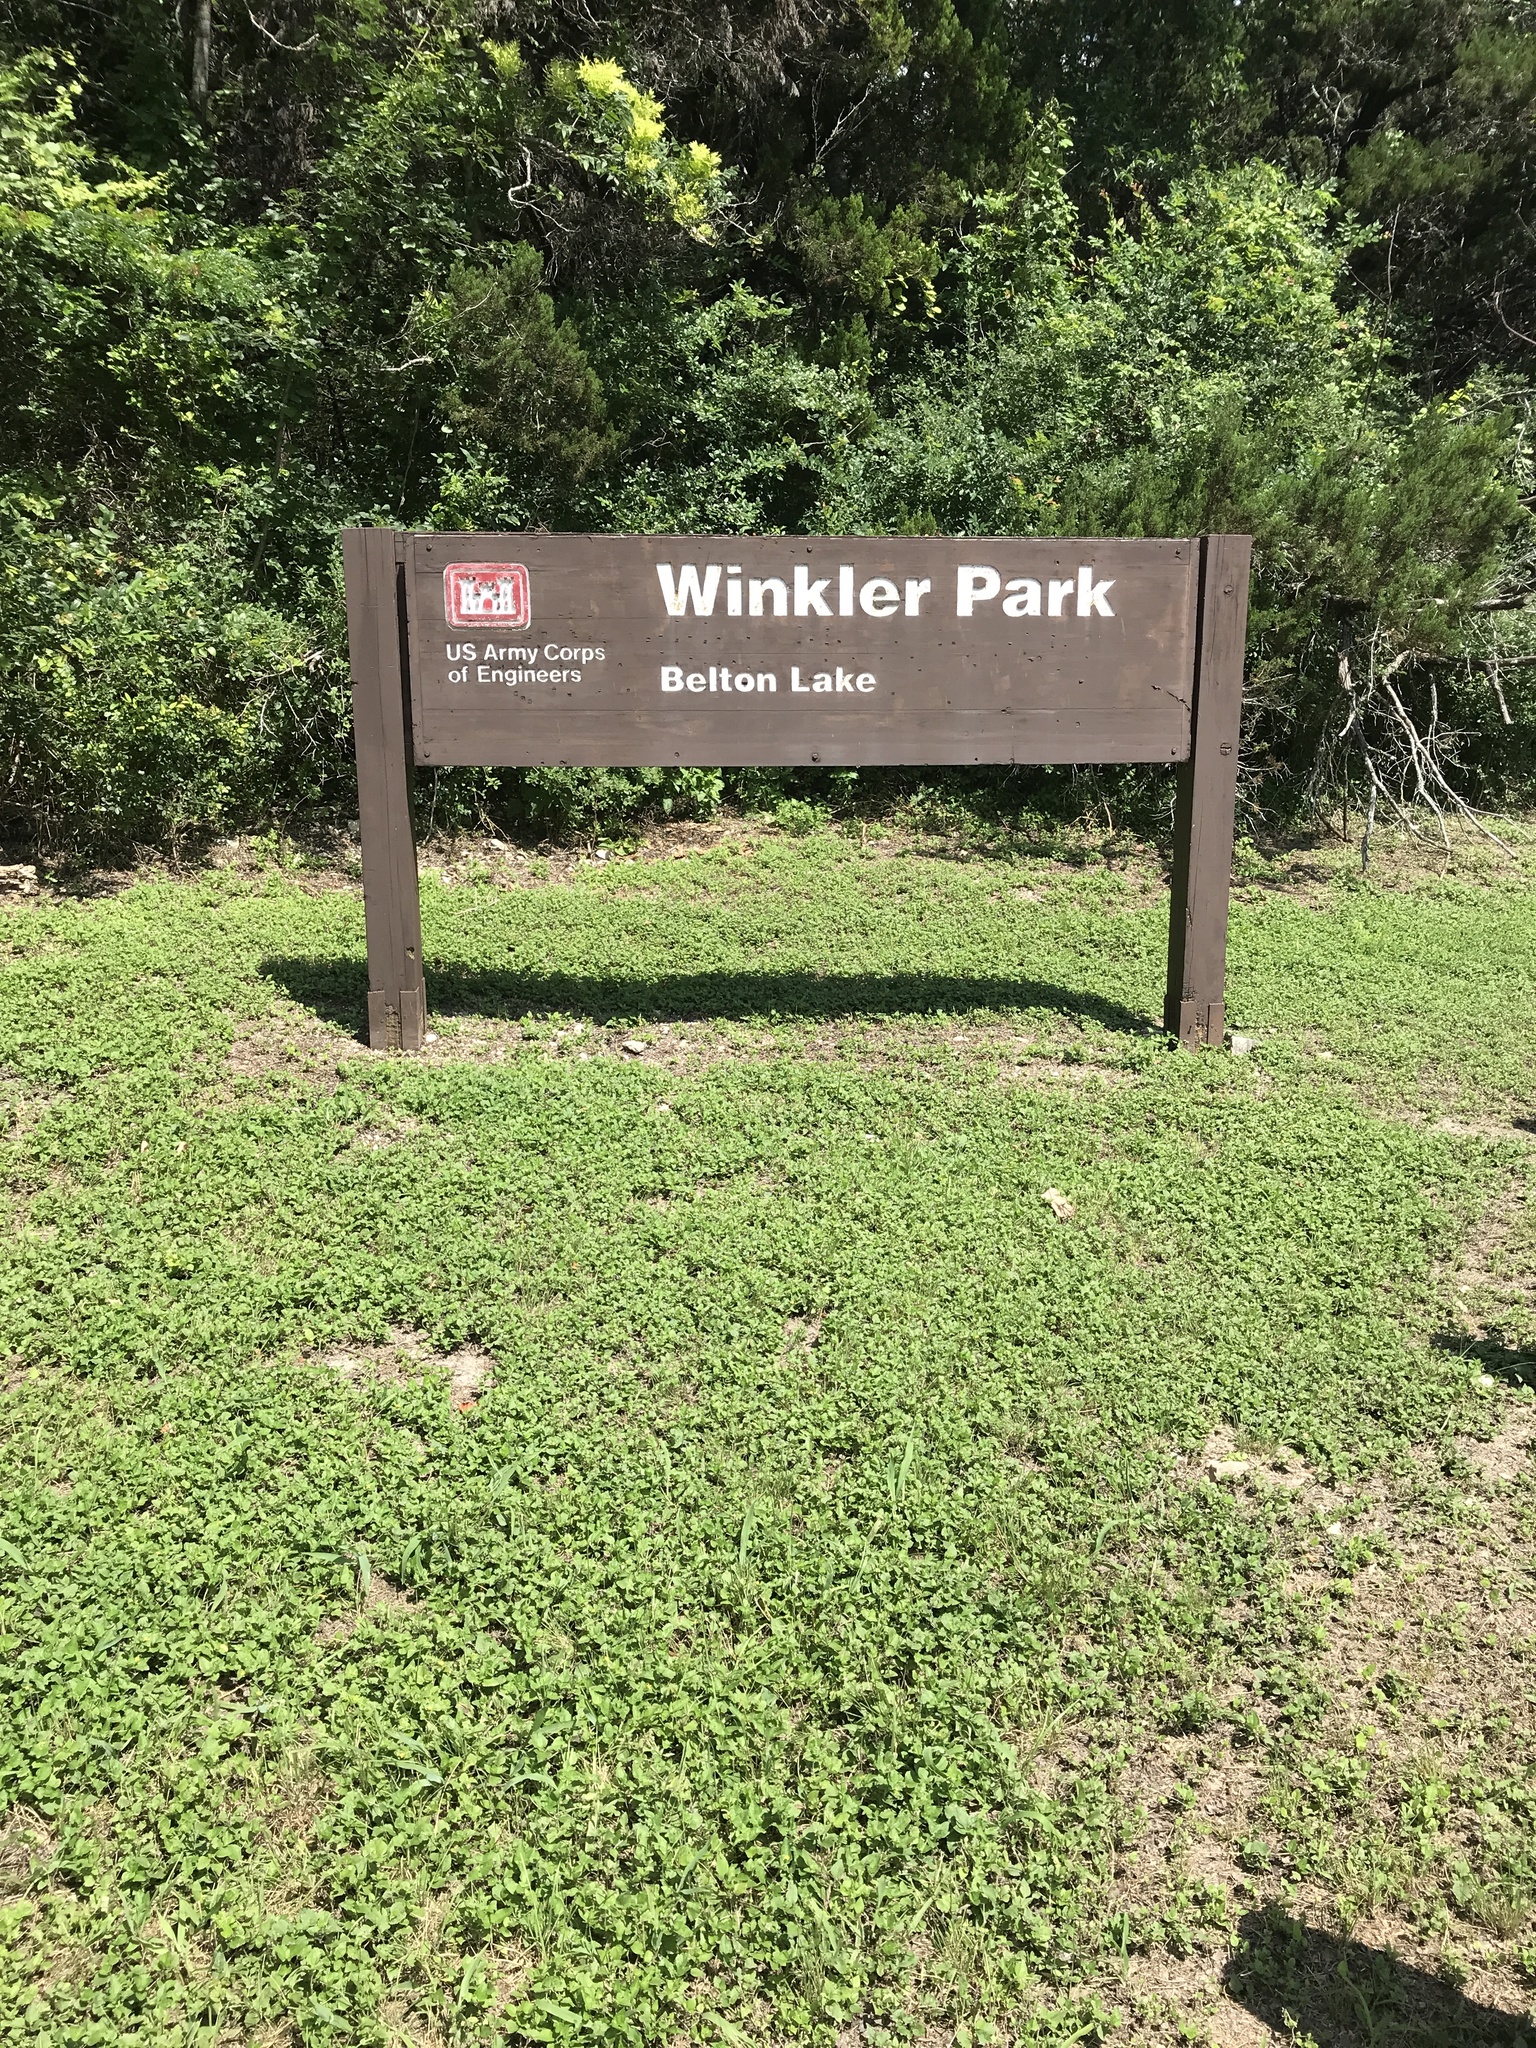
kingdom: Plantae
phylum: Tracheophyta
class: Magnoliopsida
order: Lamiales
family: Oleaceae
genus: Fraxinus
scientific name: Fraxinus albicans
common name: Texas ash
